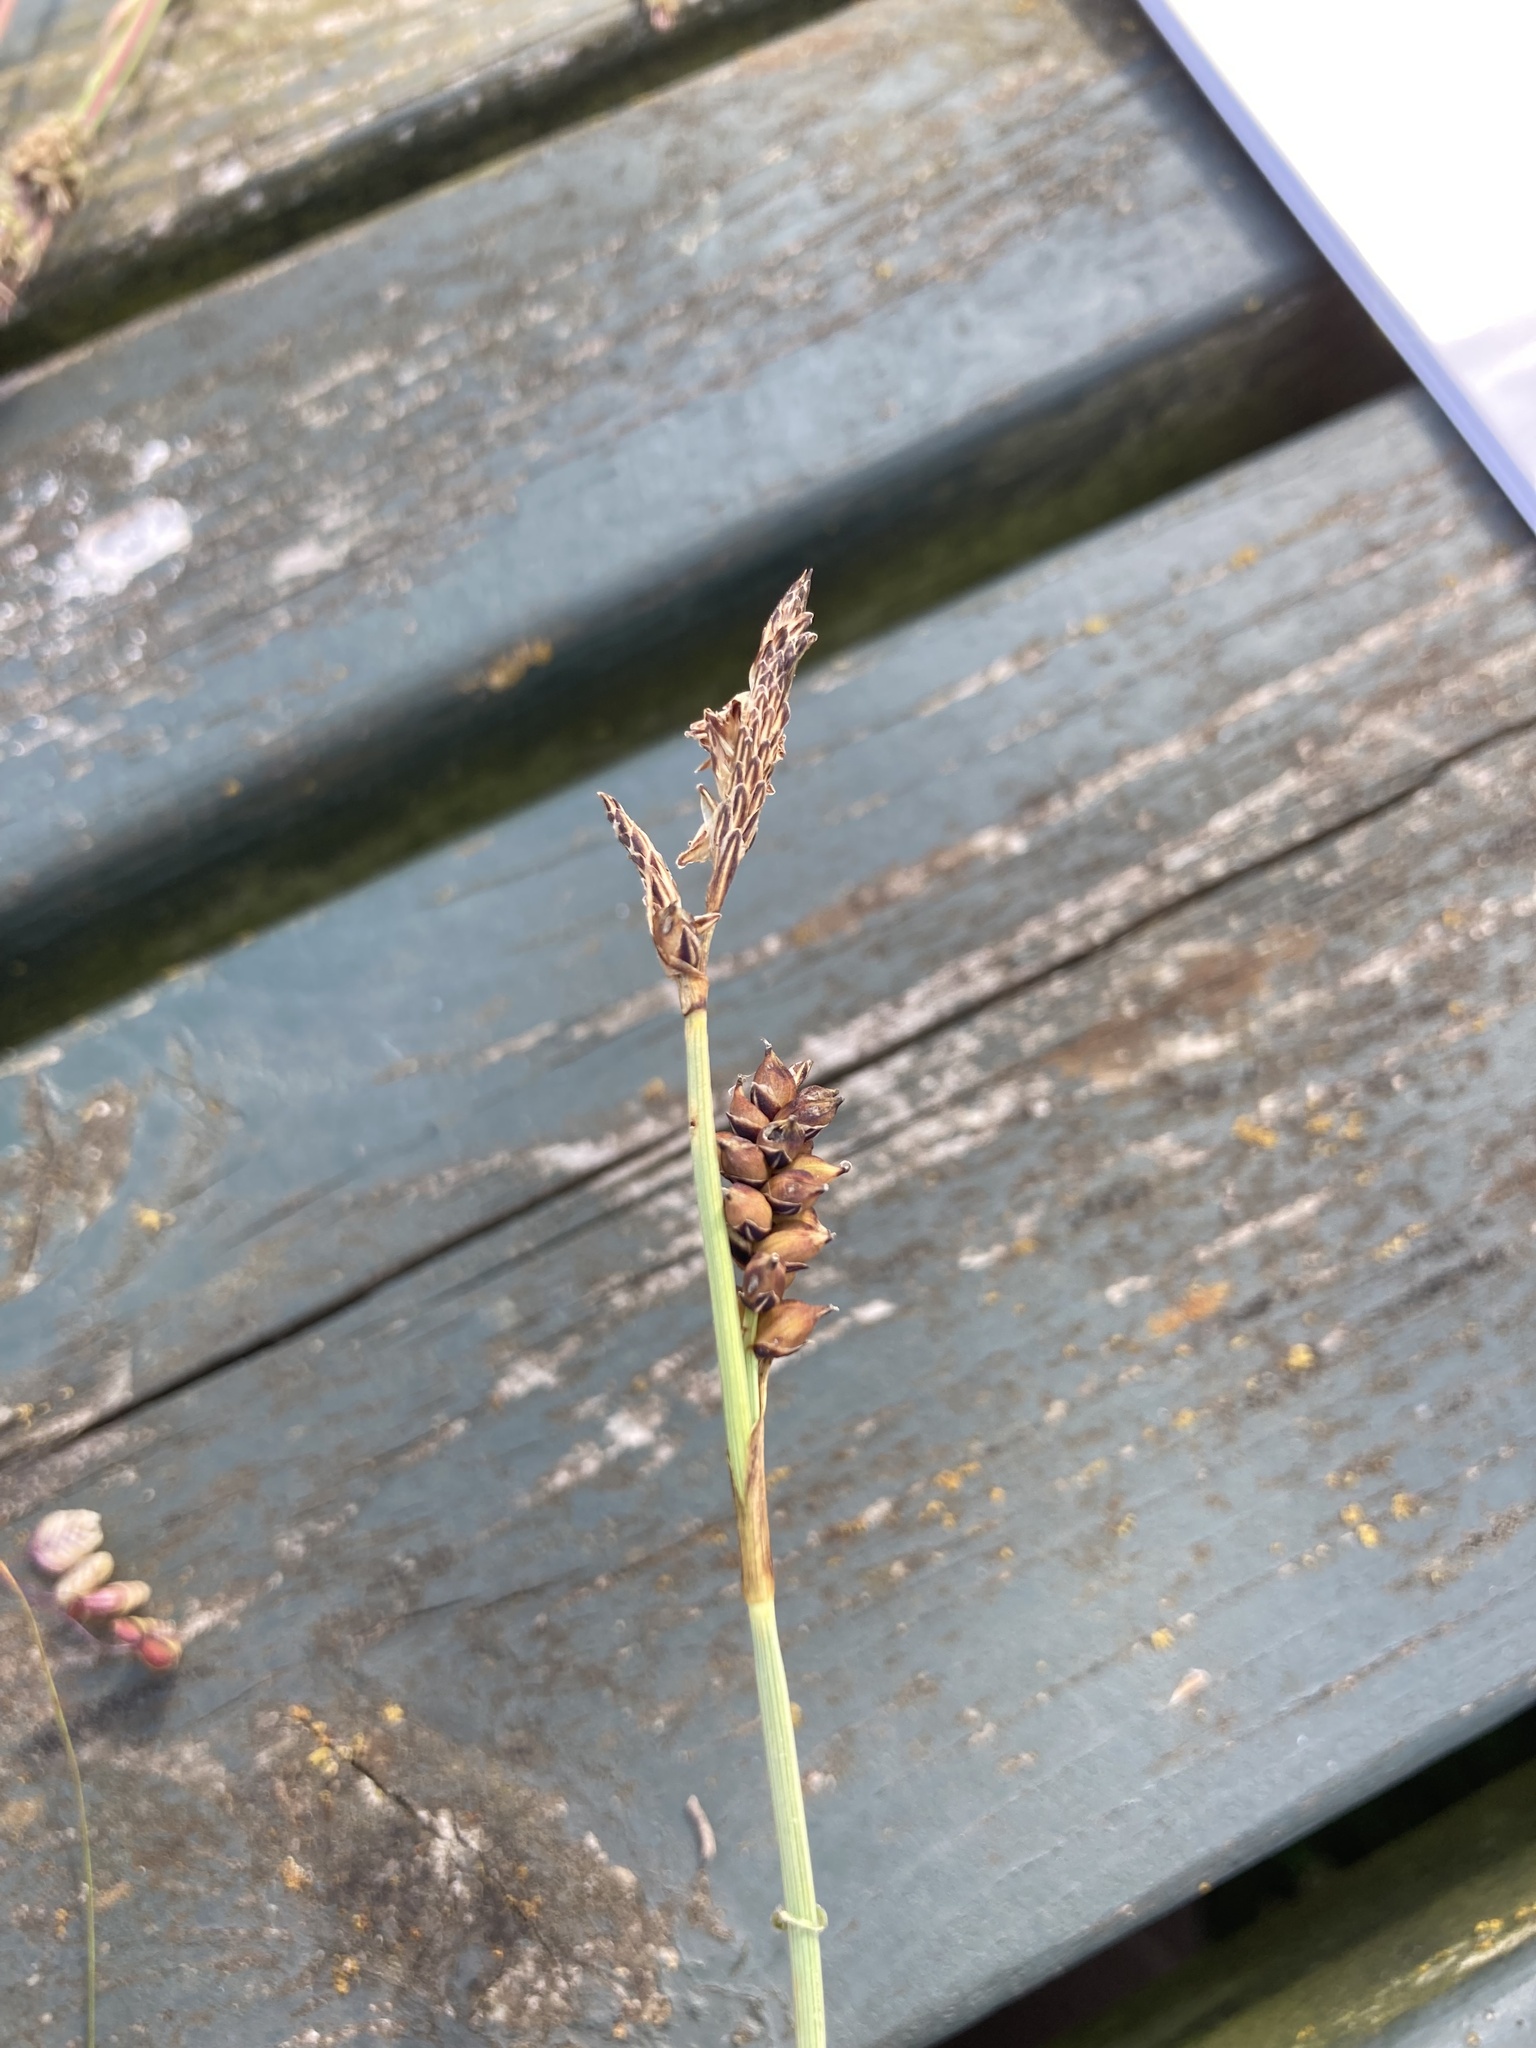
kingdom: Plantae
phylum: Tracheophyta
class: Liliopsida
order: Poales
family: Cyperaceae
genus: Carex
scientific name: Carex panicea
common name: Carnation sedge
